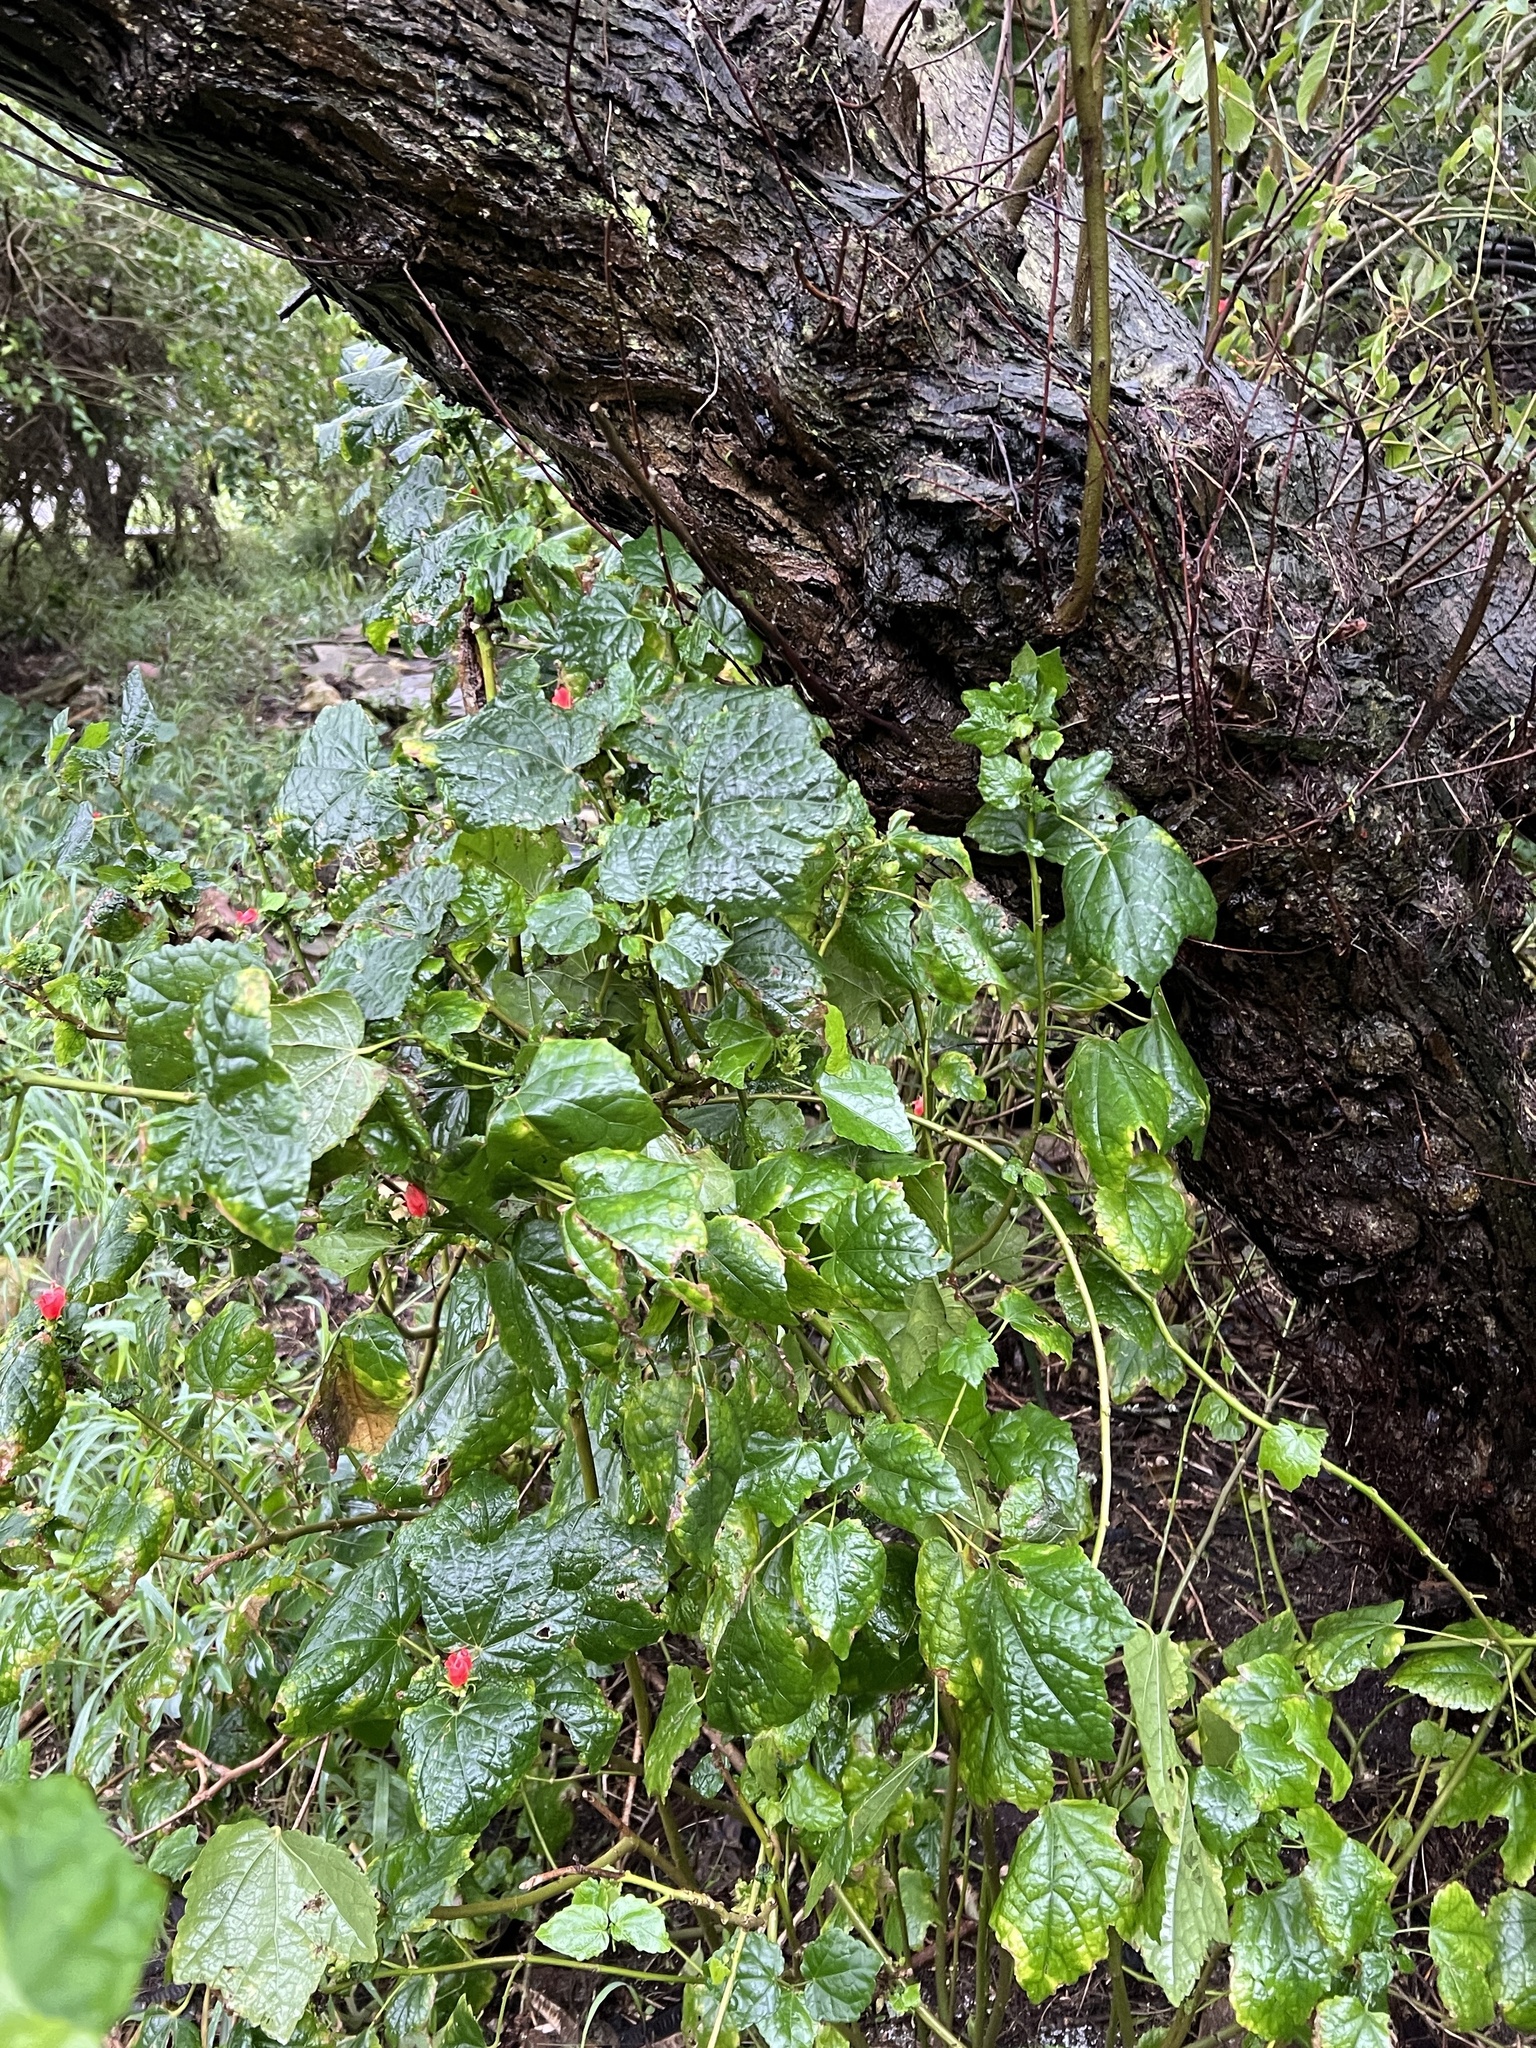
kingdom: Plantae
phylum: Tracheophyta
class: Magnoliopsida
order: Malvales
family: Malvaceae
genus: Malvaviscus
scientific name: Malvaviscus arboreus
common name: Wax mallow
